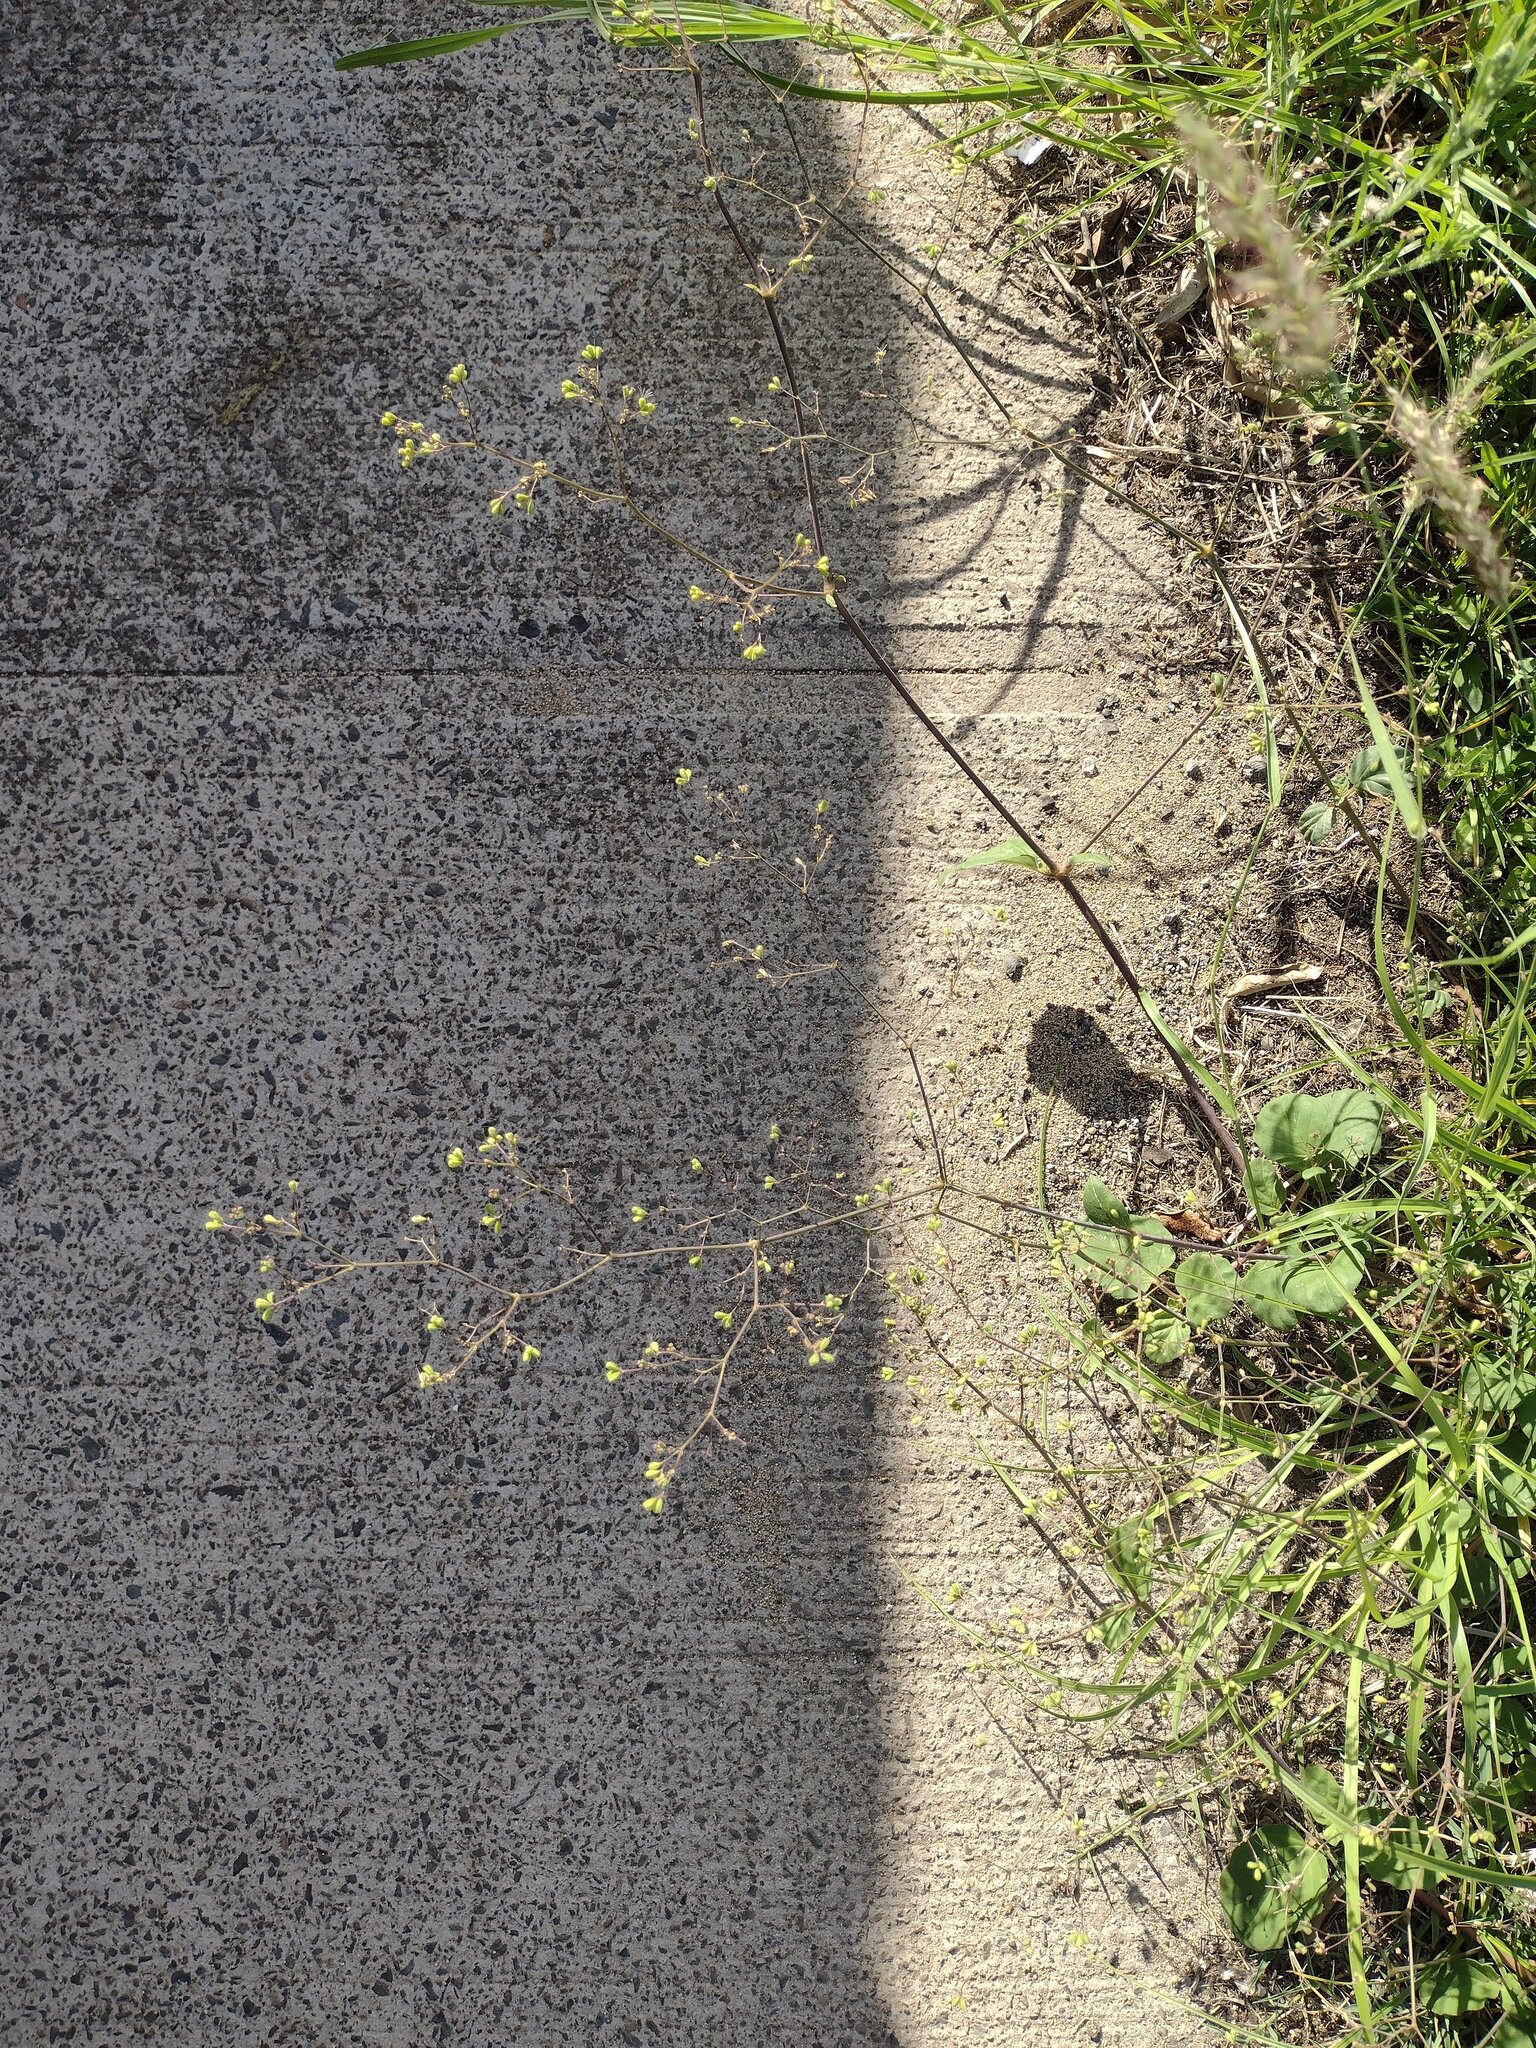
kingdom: Plantae
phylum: Tracheophyta
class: Magnoliopsida
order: Caryophyllales
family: Nyctaginaceae
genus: Boerhavia
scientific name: Boerhavia diffusa
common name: Red spiderling
